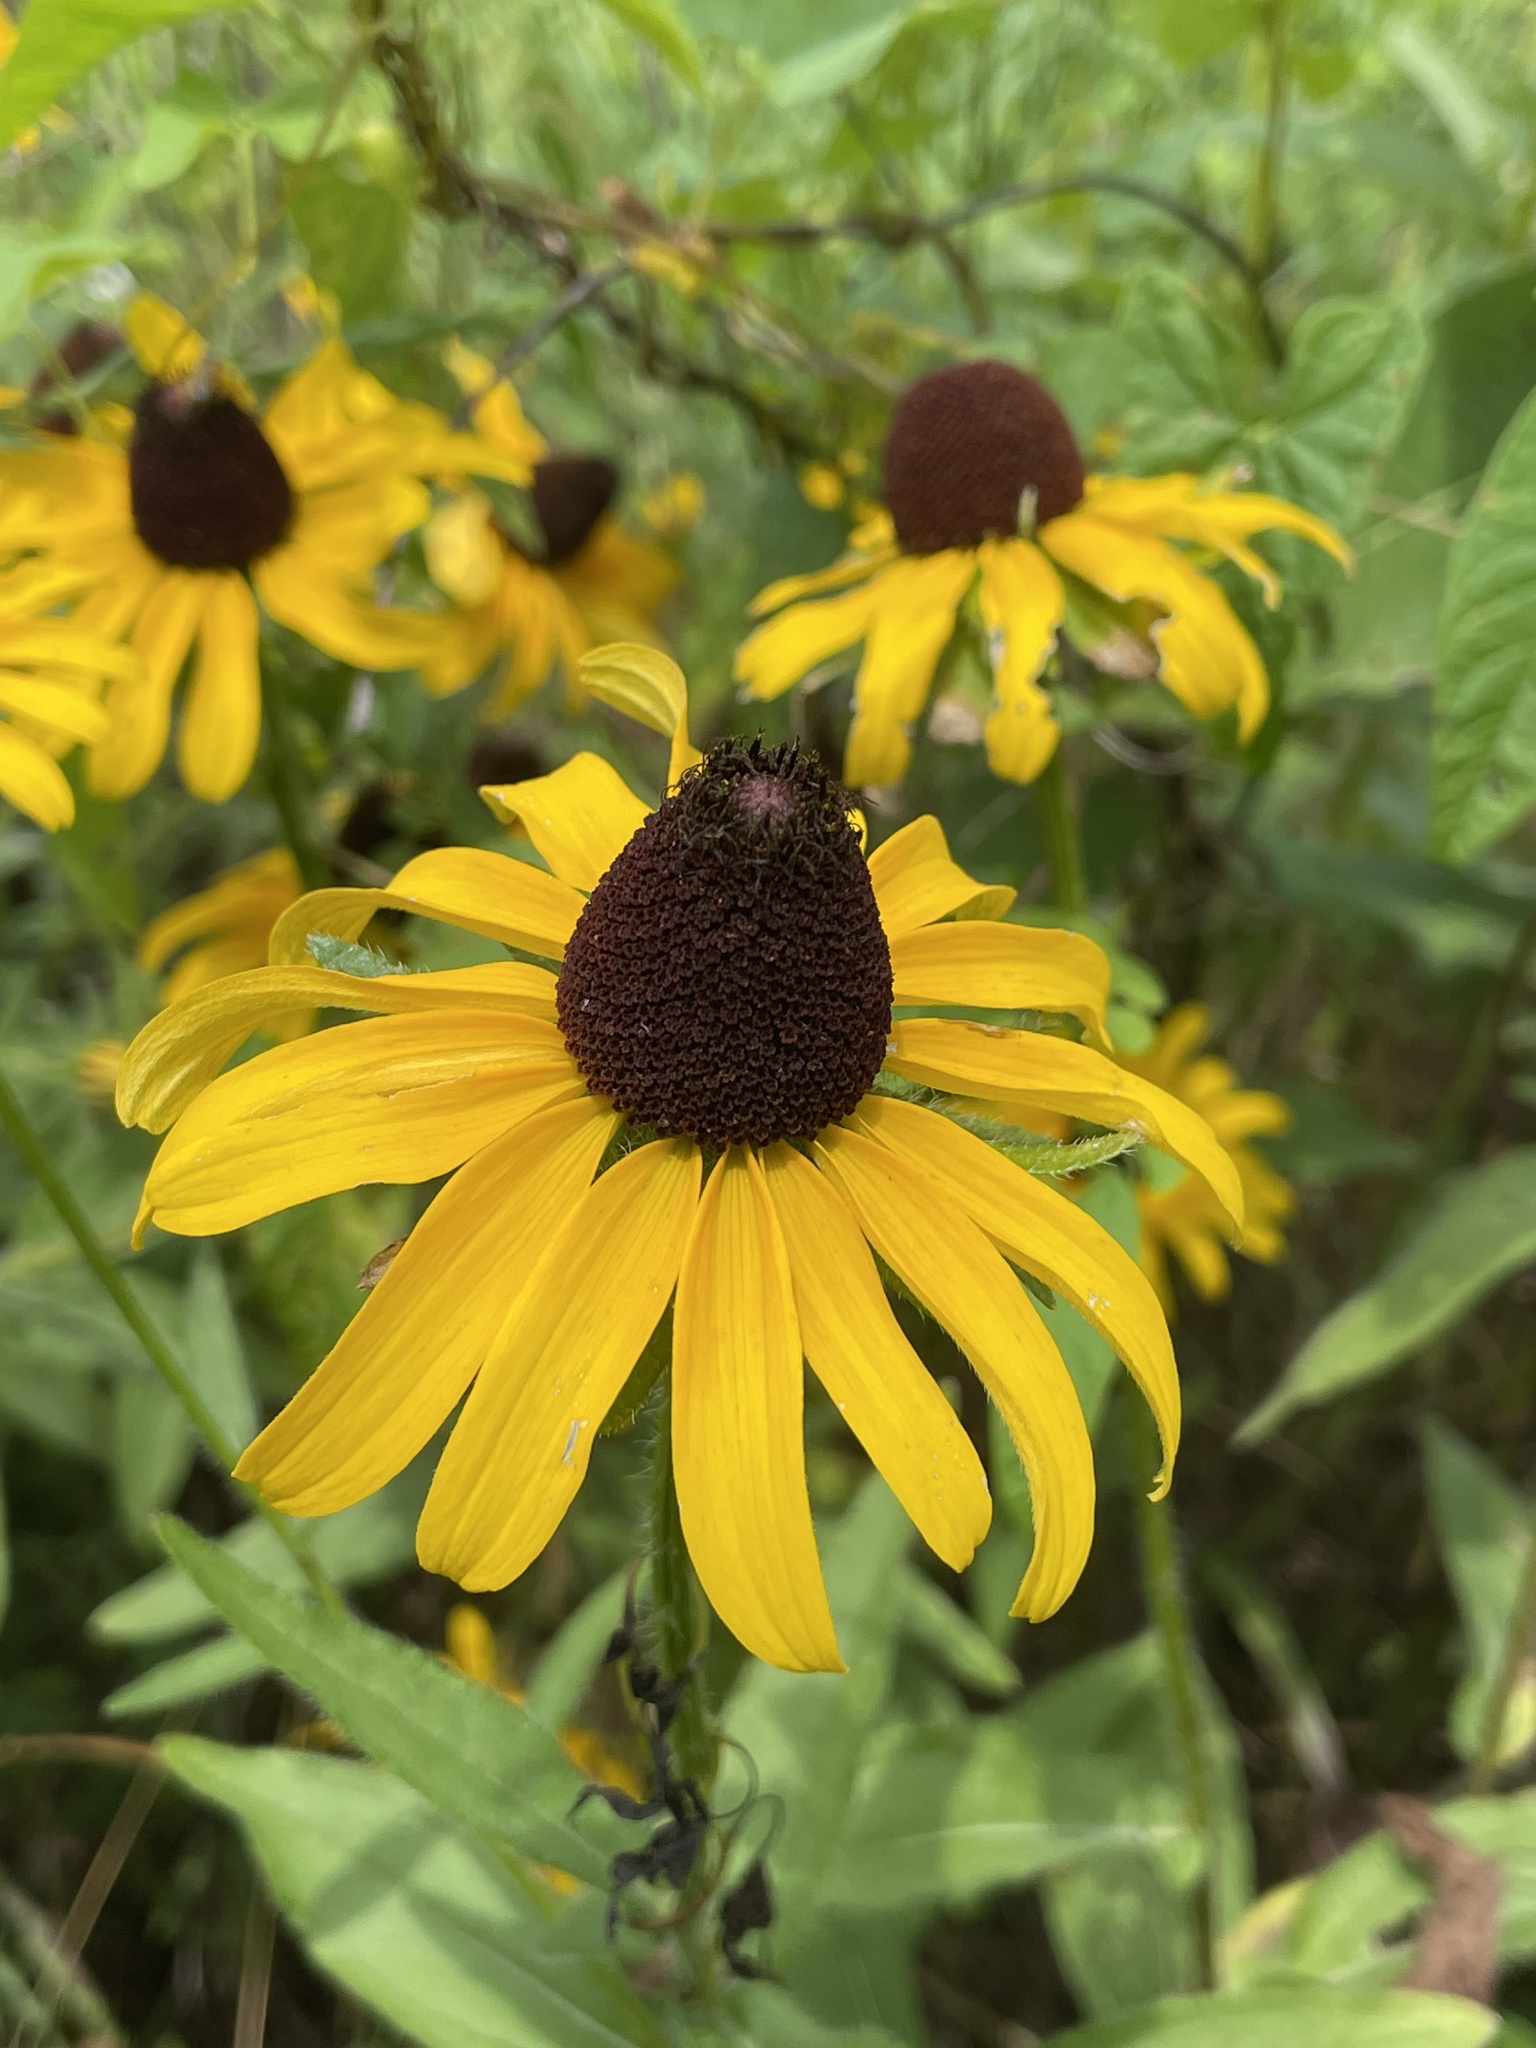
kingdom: Plantae
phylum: Tracheophyta
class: Magnoliopsida
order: Asterales
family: Asteraceae
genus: Rudbeckia
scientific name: Rudbeckia fulgida
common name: Perennial coneflower
